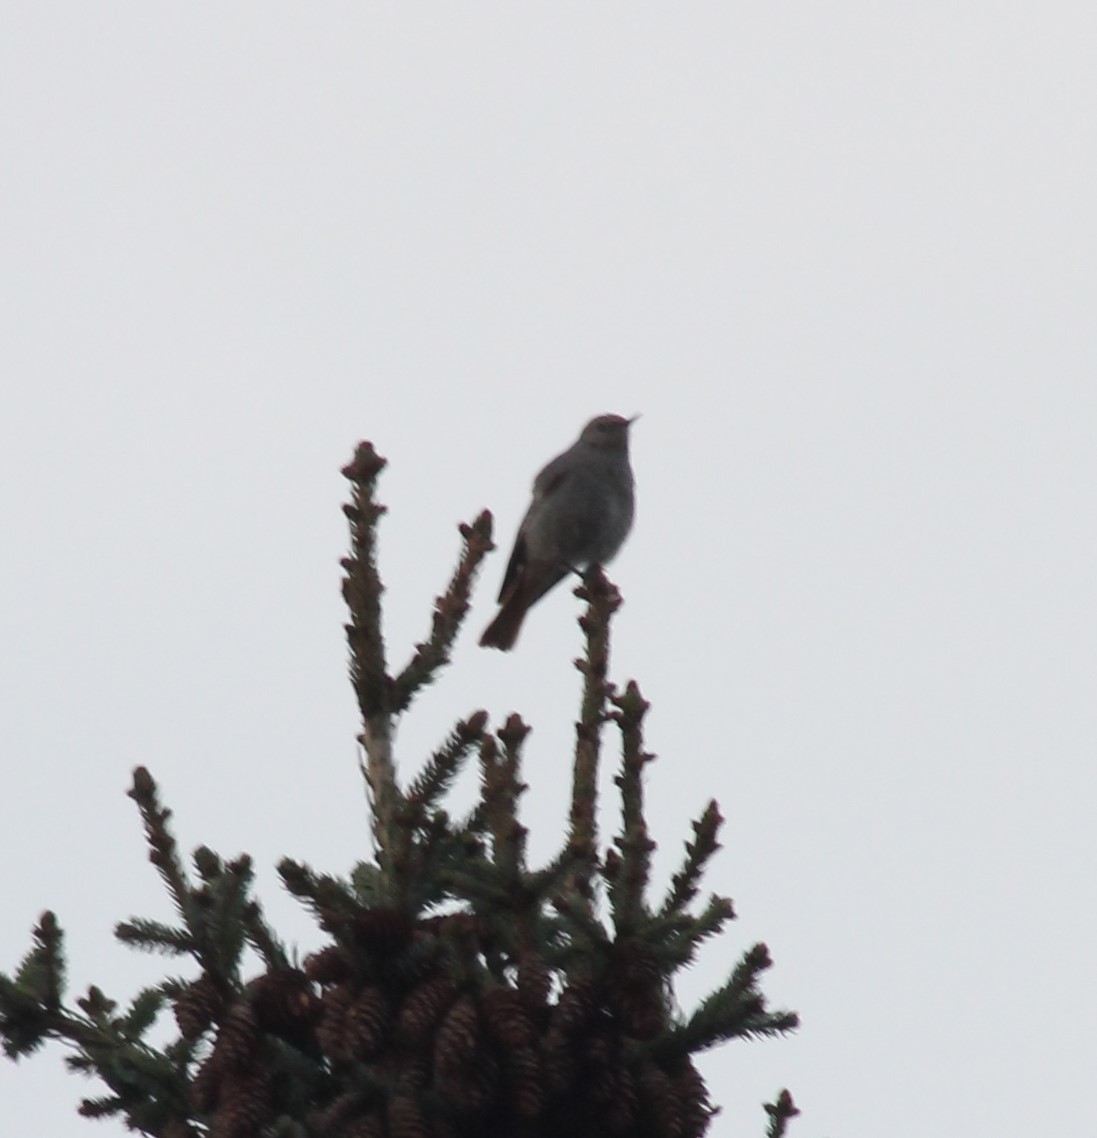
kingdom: Animalia
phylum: Chordata
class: Aves
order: Passeriformes
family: Muscicapidae
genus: Phoenicurus
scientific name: Phoenicurus ochruros
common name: Black redstart
